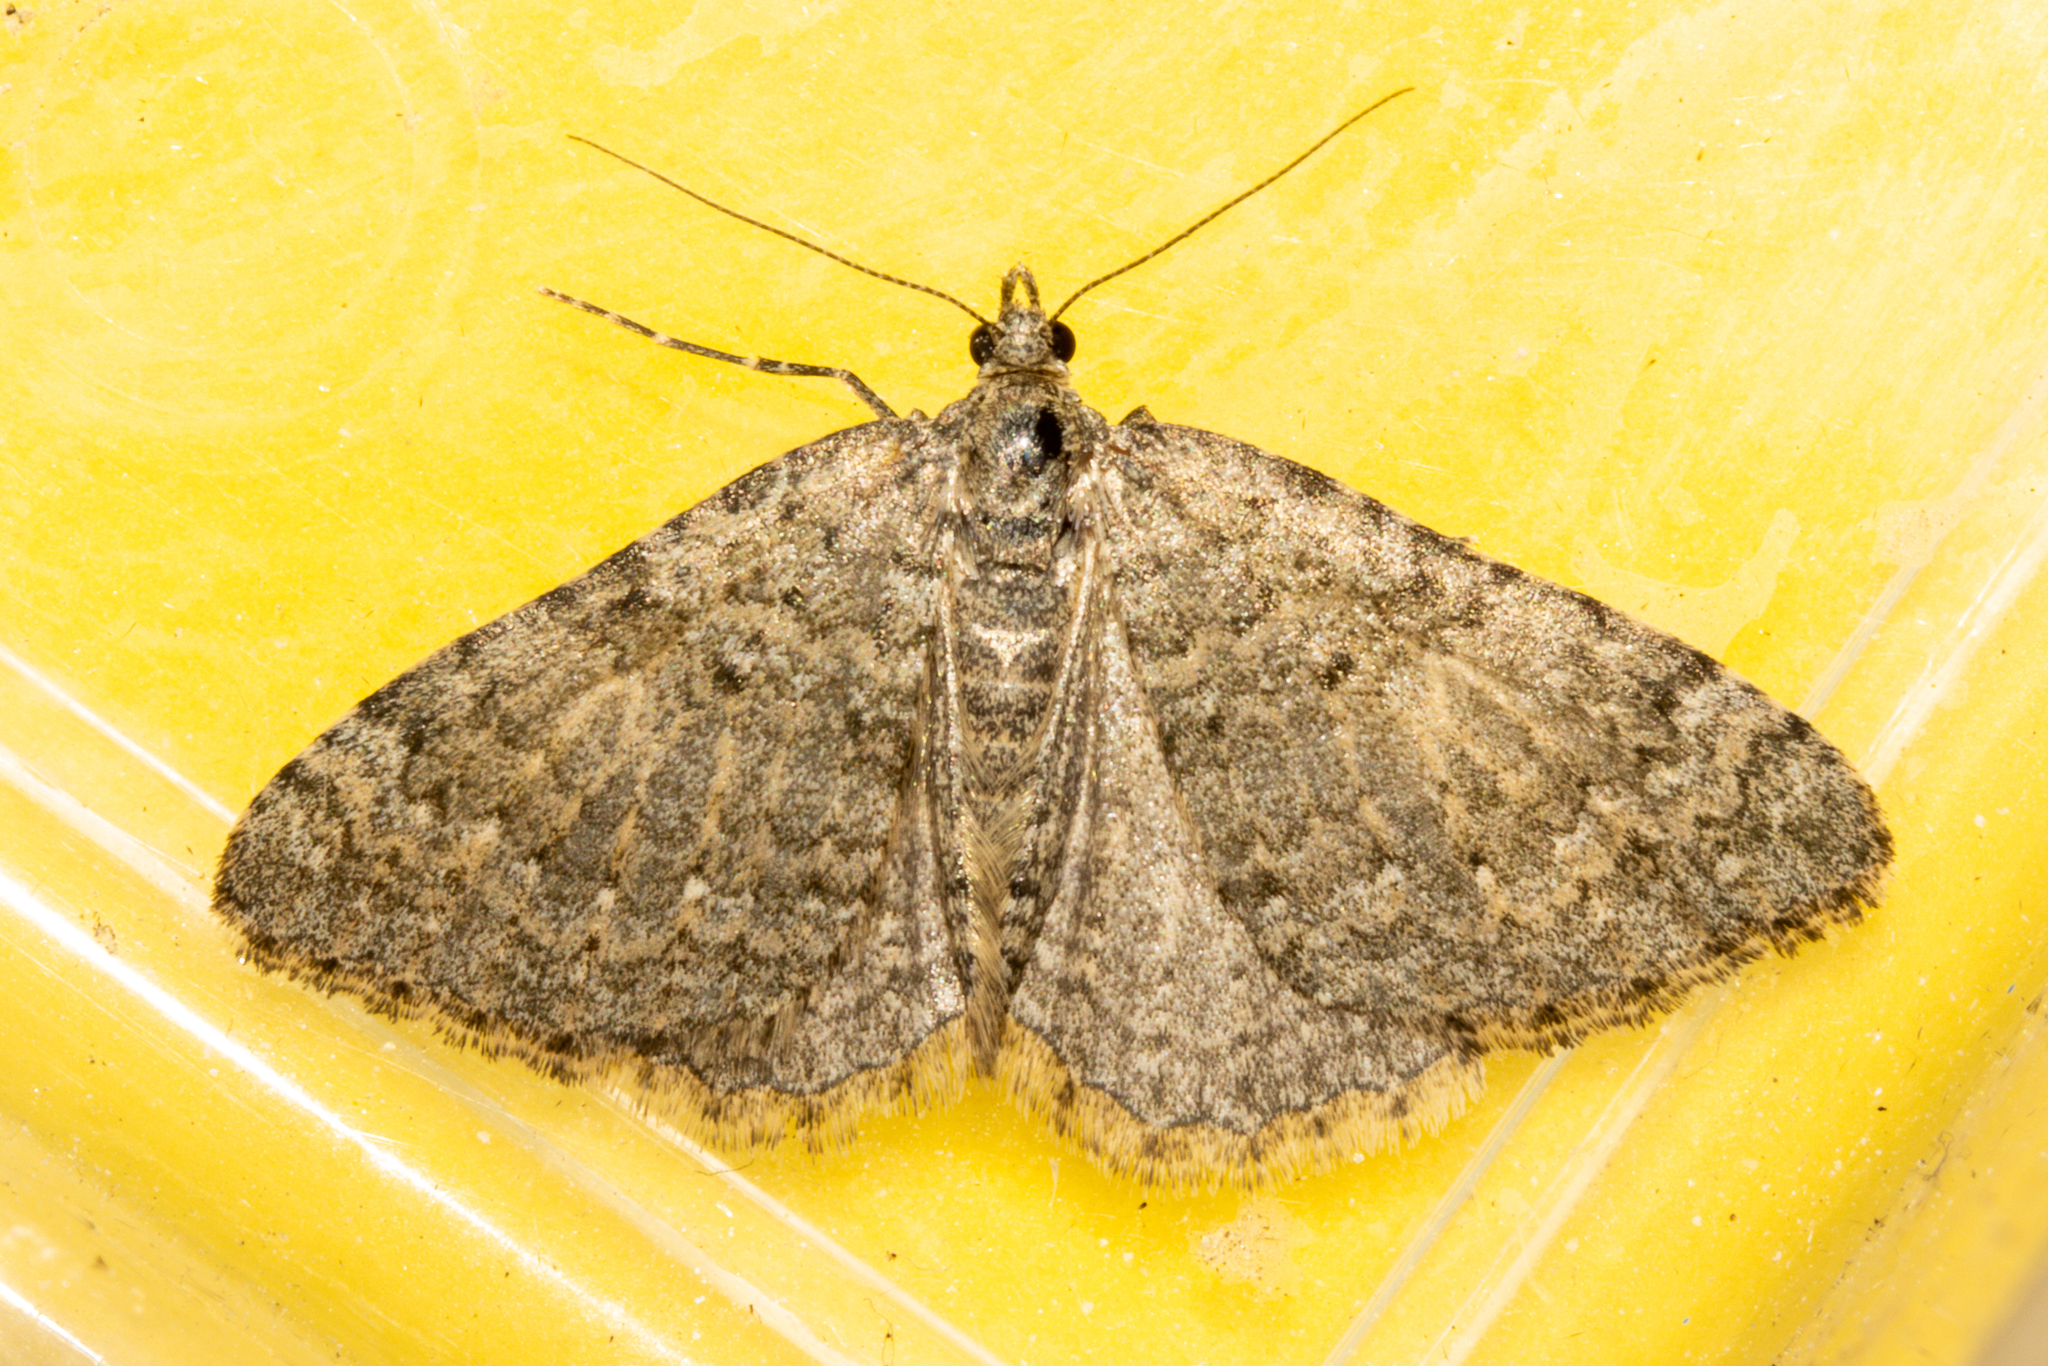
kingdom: Animalia
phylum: Arthropoda
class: Insecta
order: Lepidoptera
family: Geometridae
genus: Helastia
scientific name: Helastia corcularia
